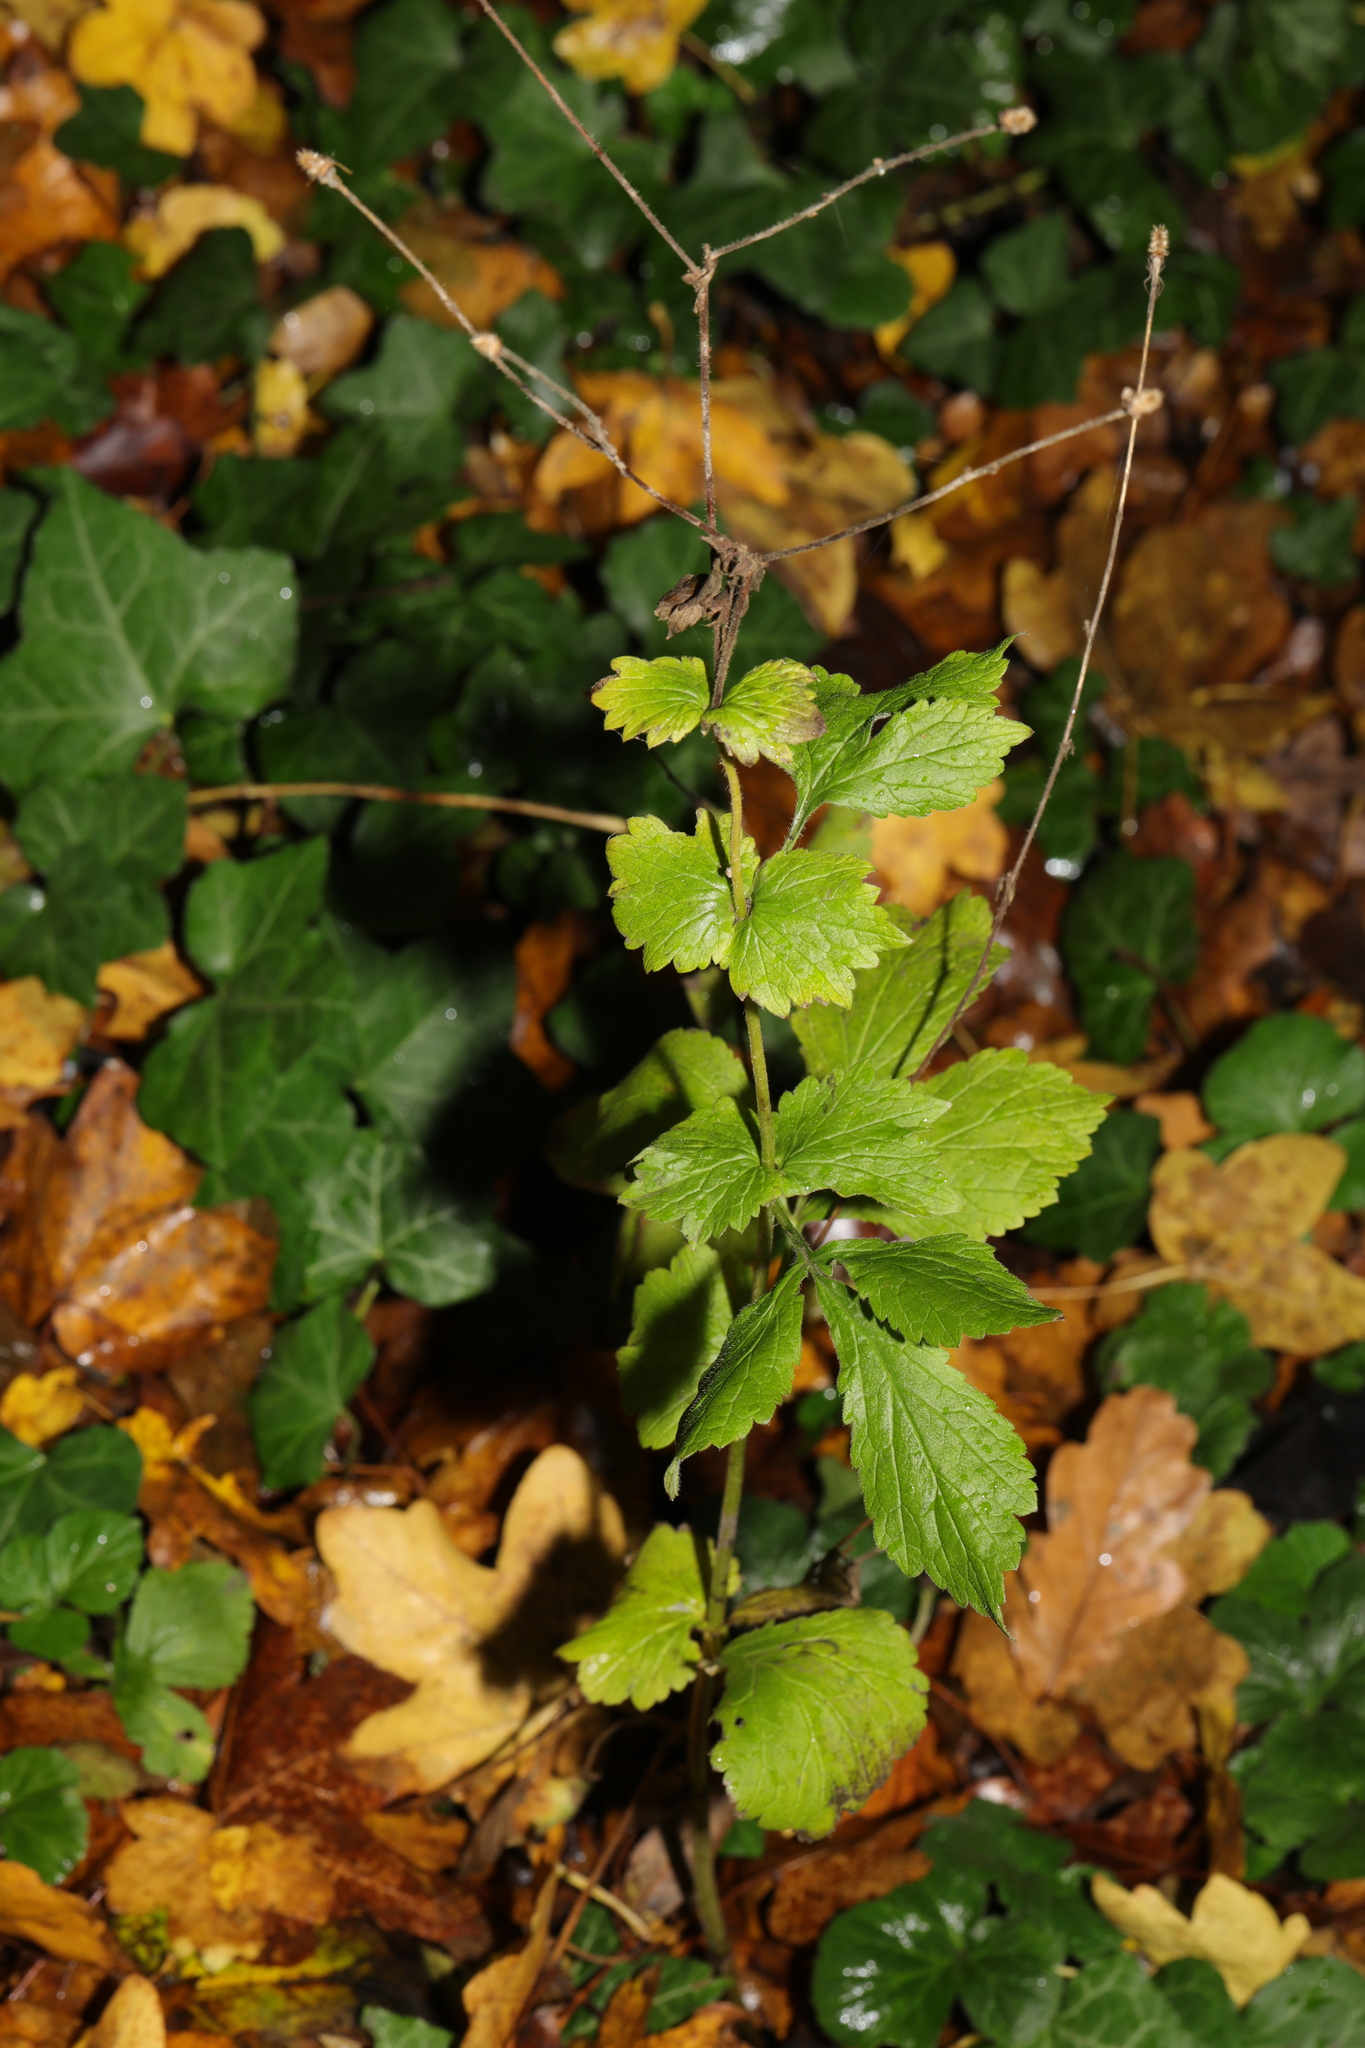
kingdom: Plantae
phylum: Tracheophyta
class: Magnoliopsida
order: Rosales
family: Rosaceae
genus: Geum
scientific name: Geum urbanum
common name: Wood avens
